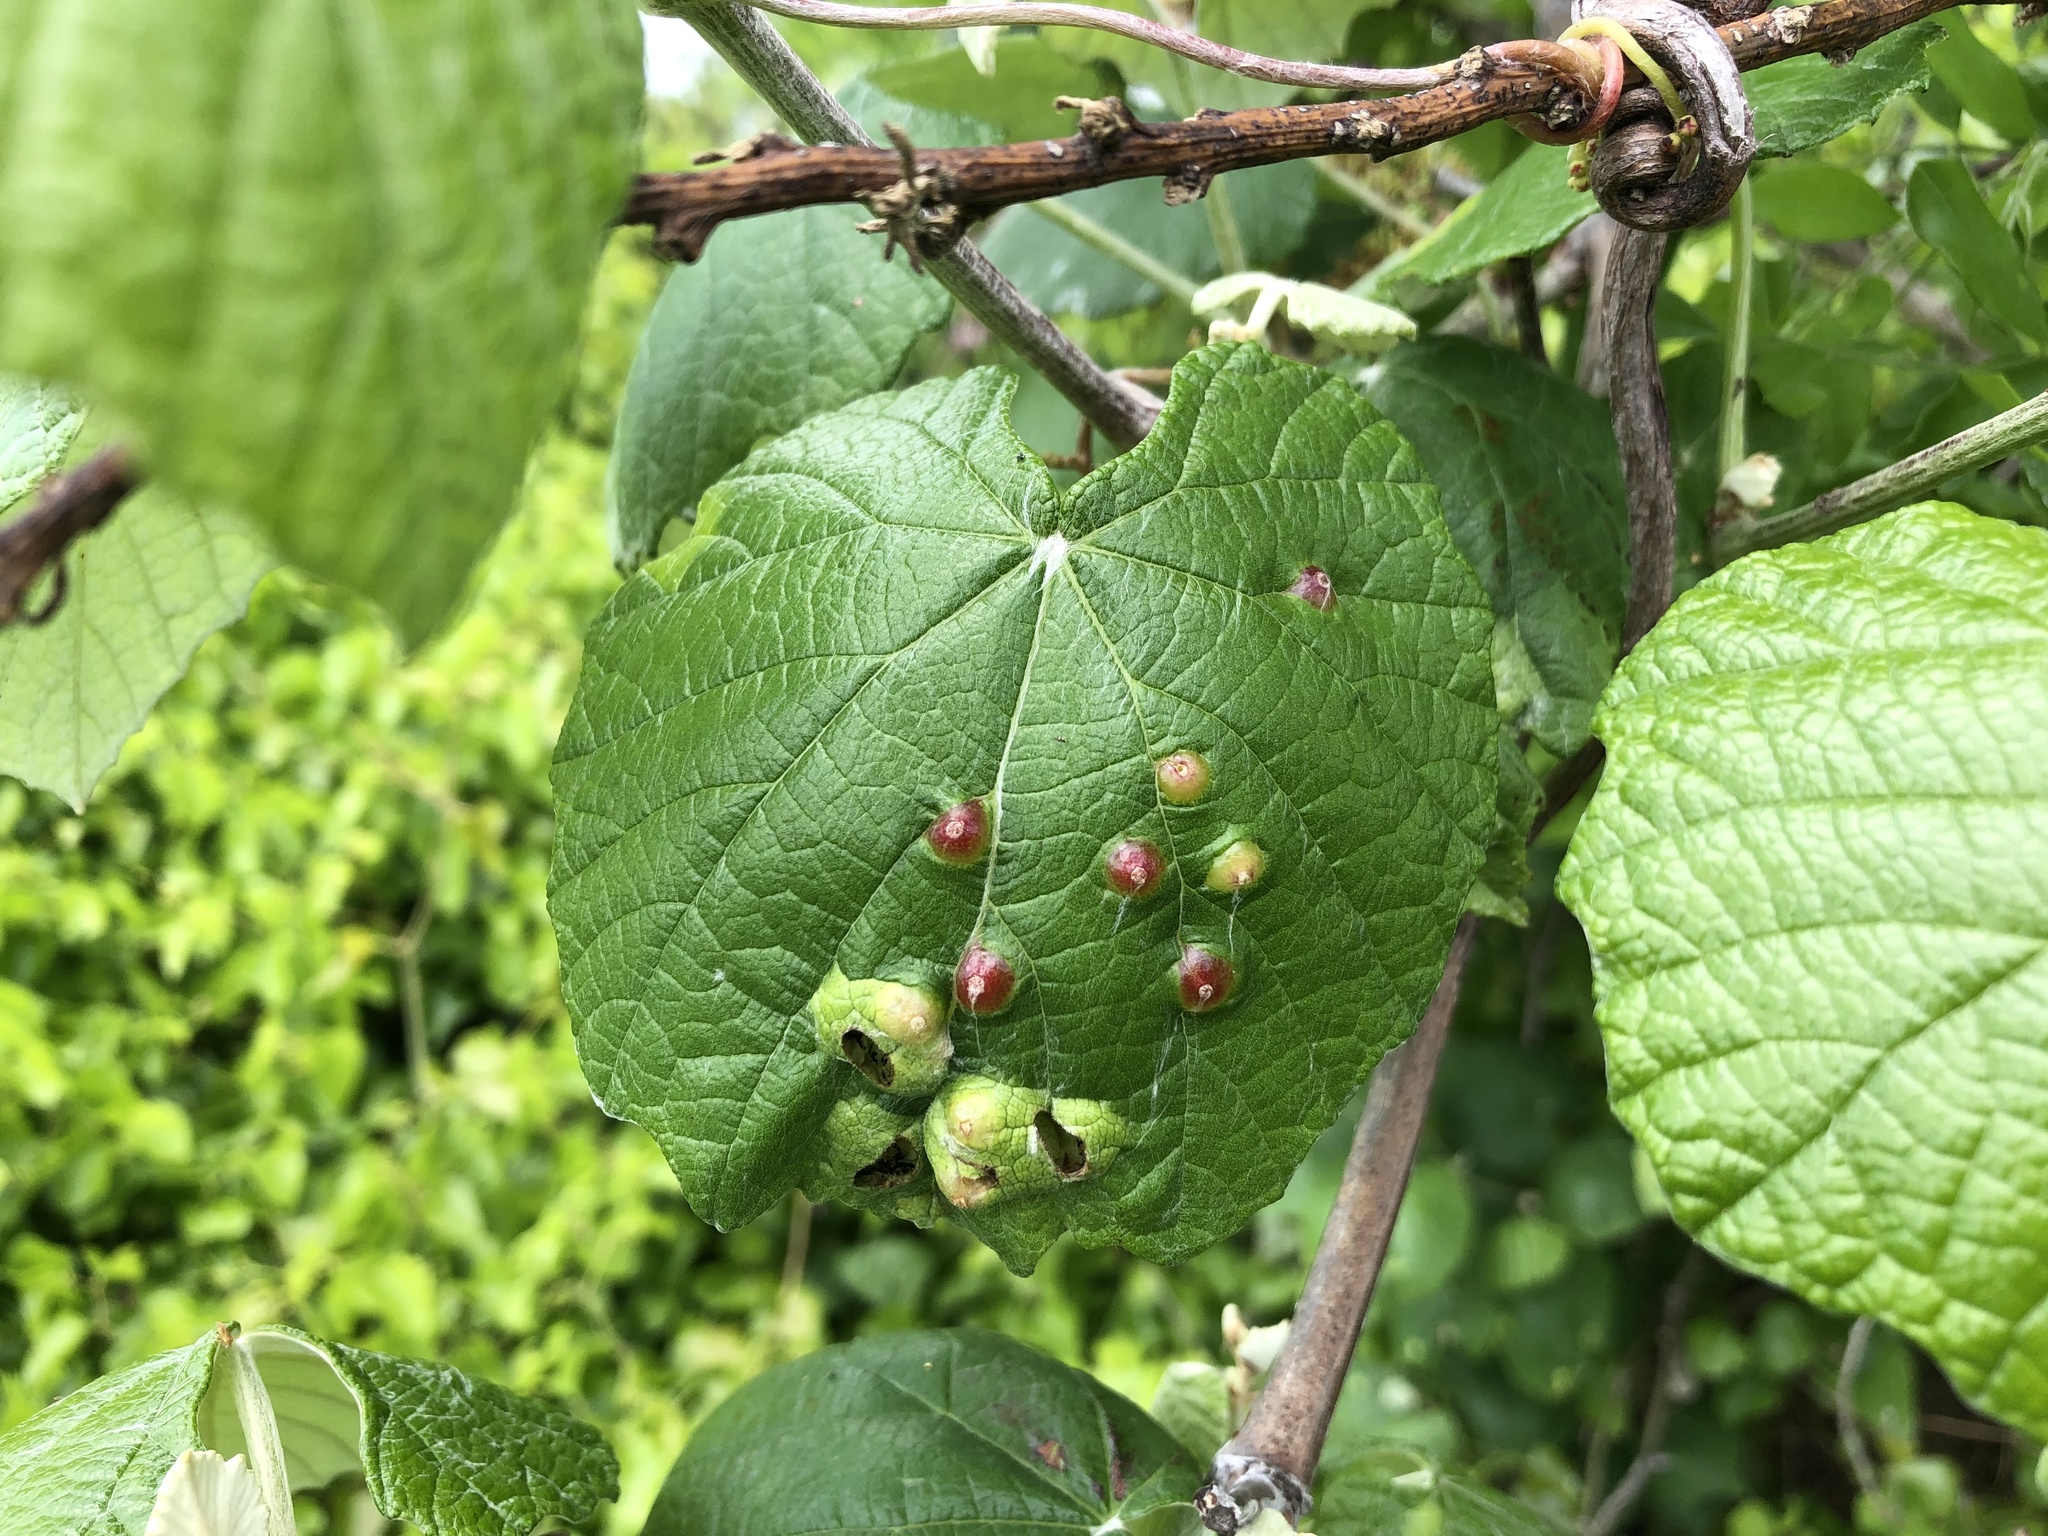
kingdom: Plantae
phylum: Tracheophyta
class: Magnoliopsida
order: Vitales
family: Vitaceae
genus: Vitis
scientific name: Vitis mustangensis
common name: Mustang grape
